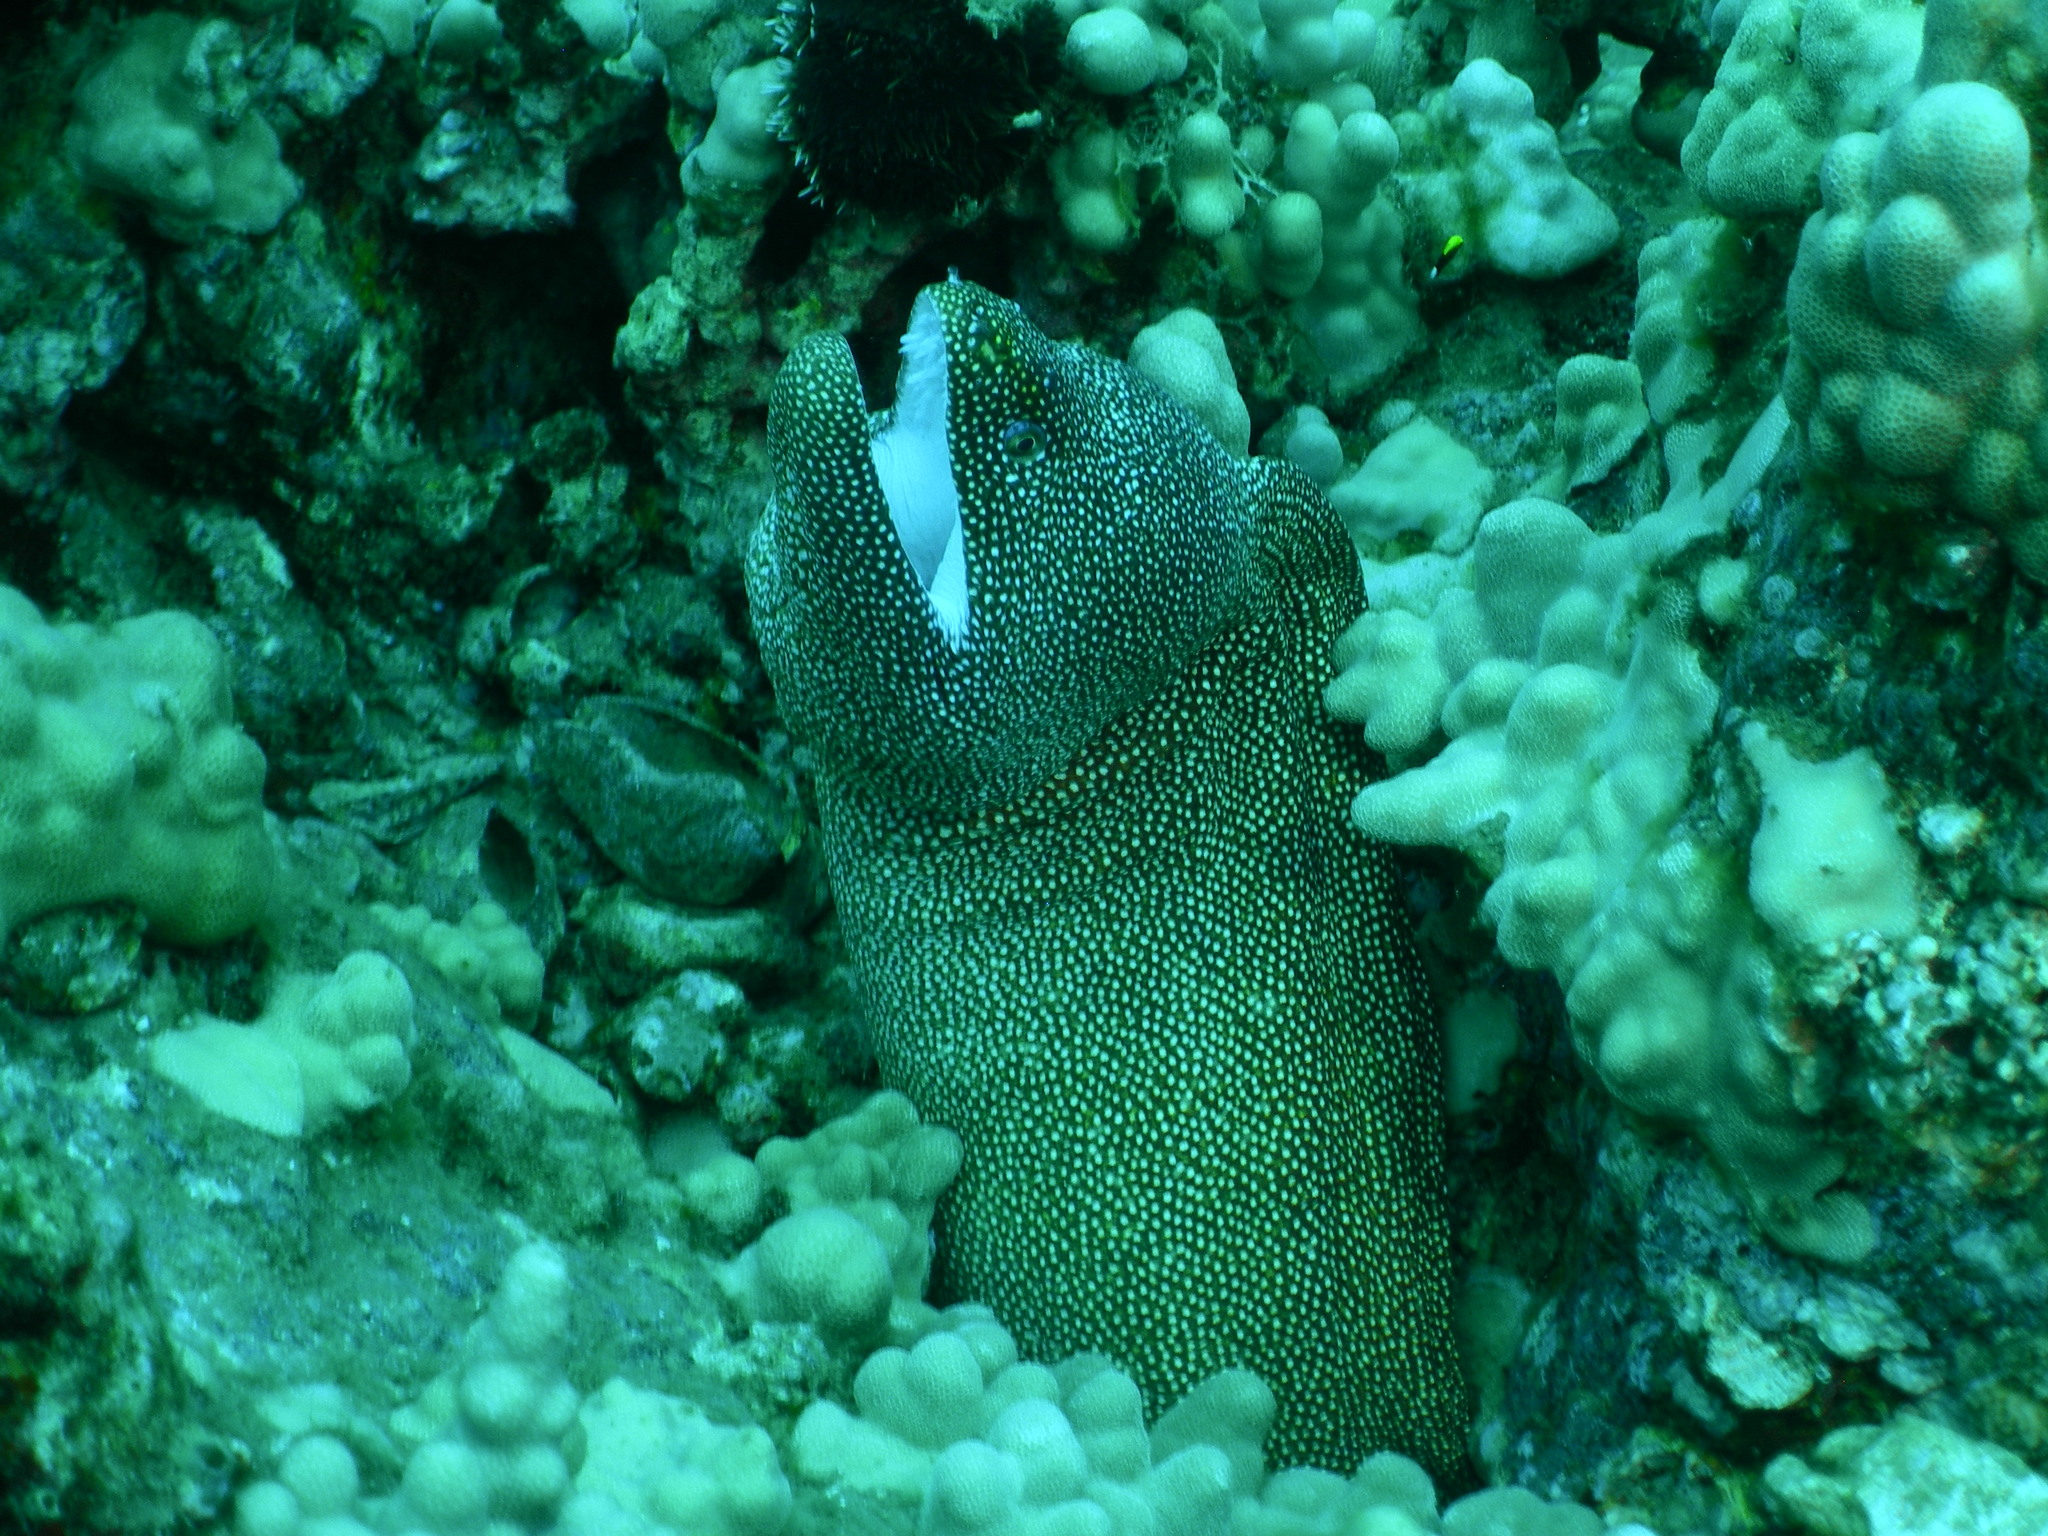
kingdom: Animalia
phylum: Chordata
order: Anguilliformes
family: Muraenidae
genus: Gymnothorax
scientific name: Gymnothorax meleagris
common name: Guineafowl moray
